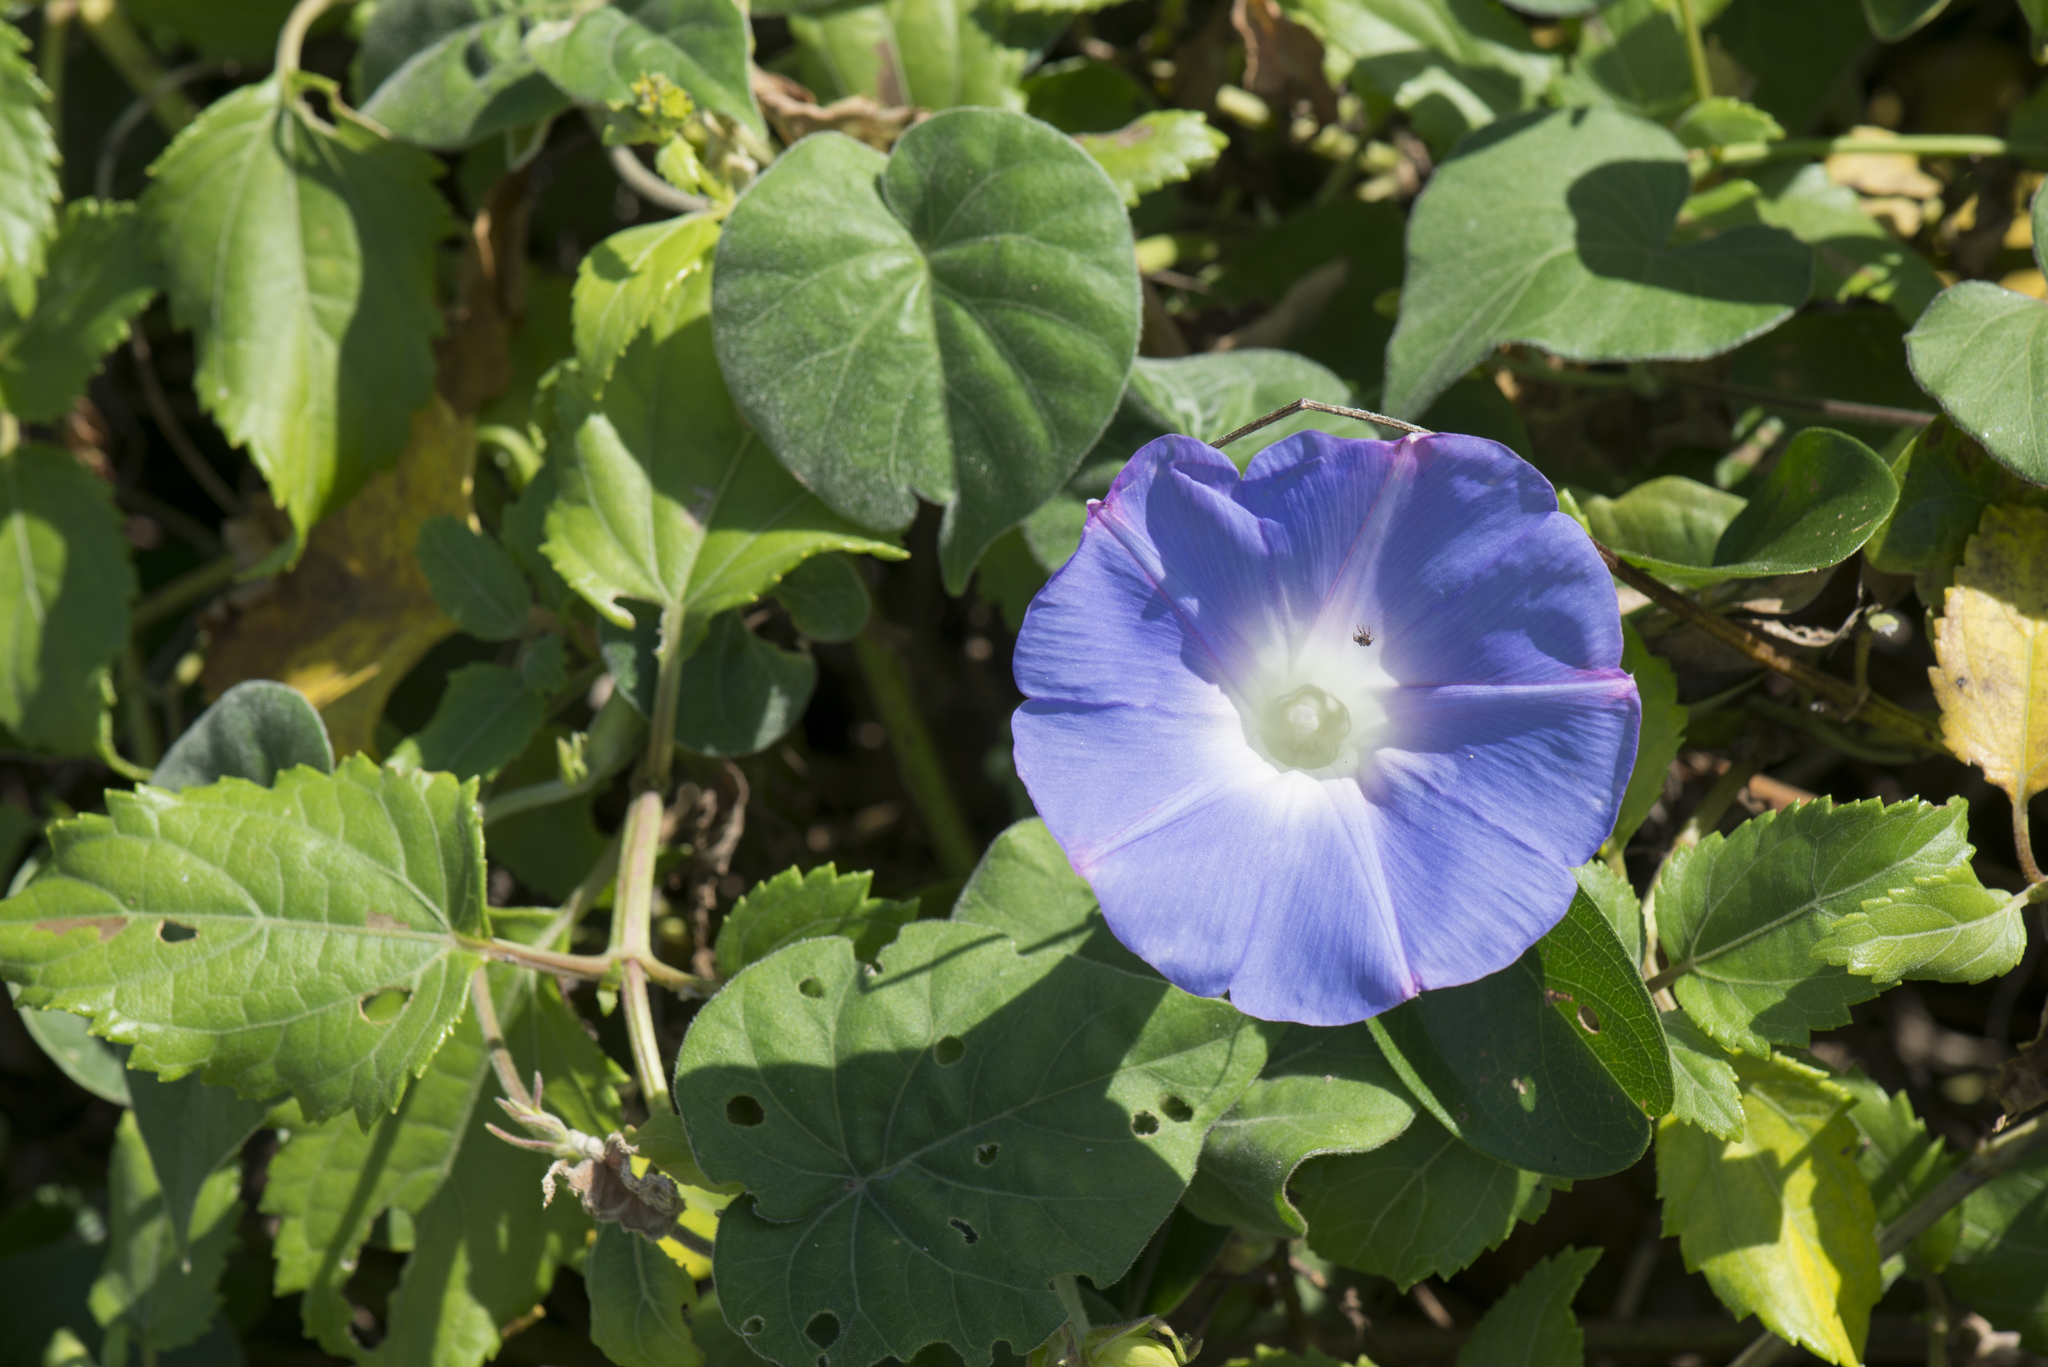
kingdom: Plantae
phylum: Tracheophyta
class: Magnoliopsida
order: Solanales
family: Convolvulaceae
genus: Ipomoea
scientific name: Ipomoea indica
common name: Blue dawnflower
